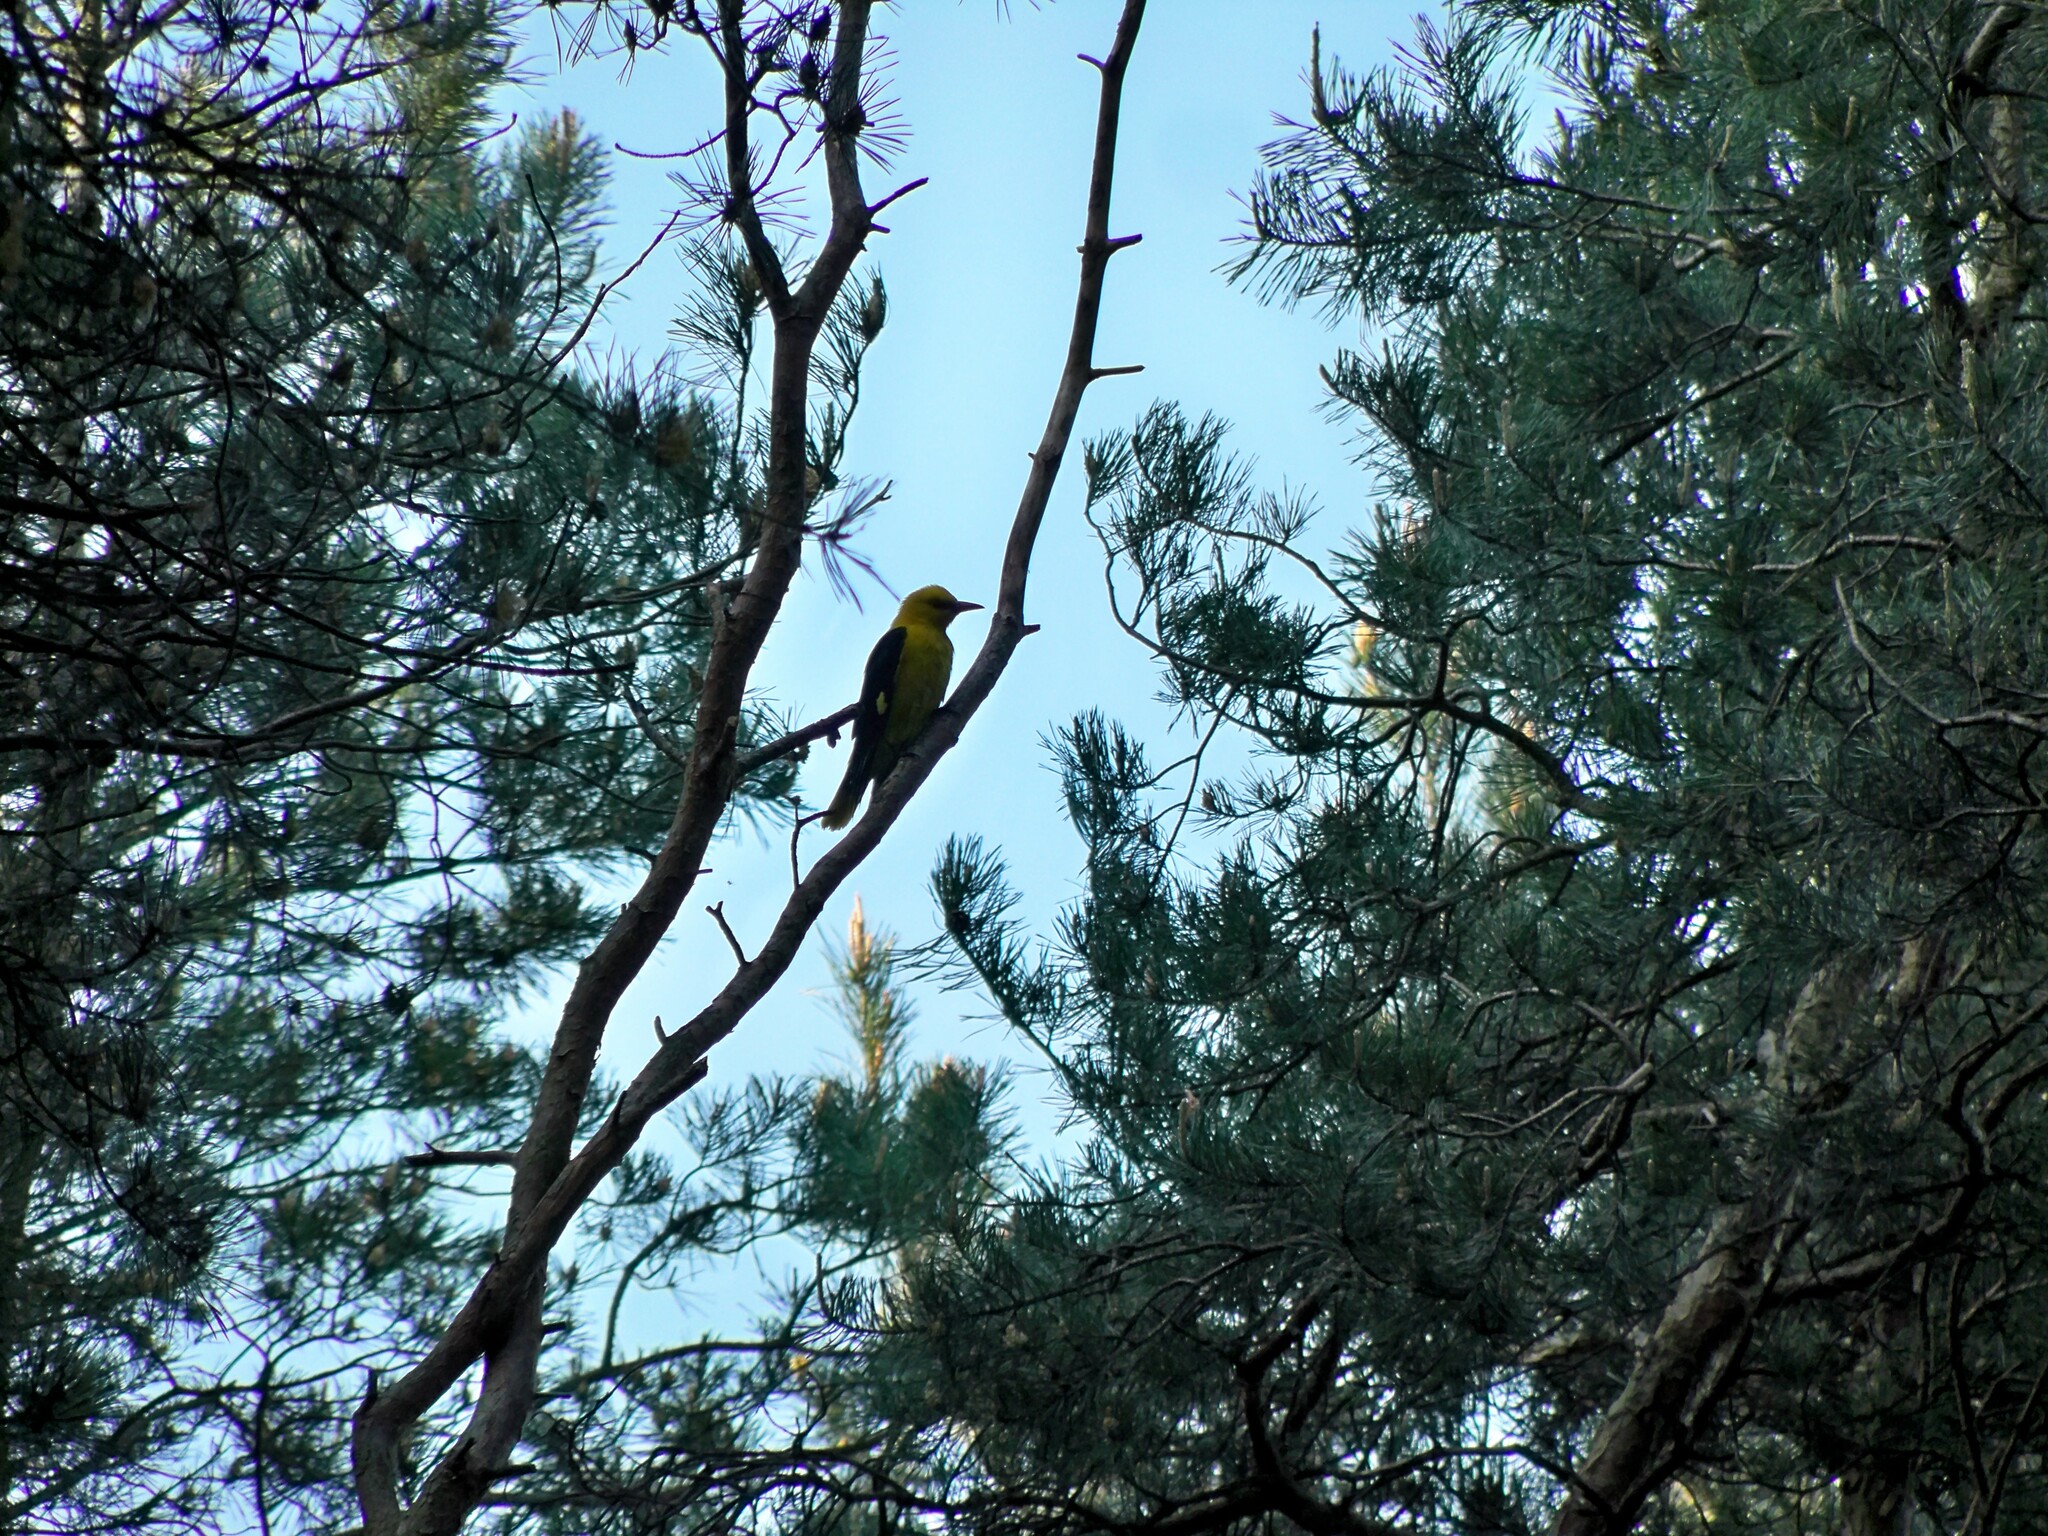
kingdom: Animalia
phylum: Chordata
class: Aves
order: Passeriformes
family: Oriolidae
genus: Oriolus
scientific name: Oriolus oriolus
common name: Eurasian golden oriole
